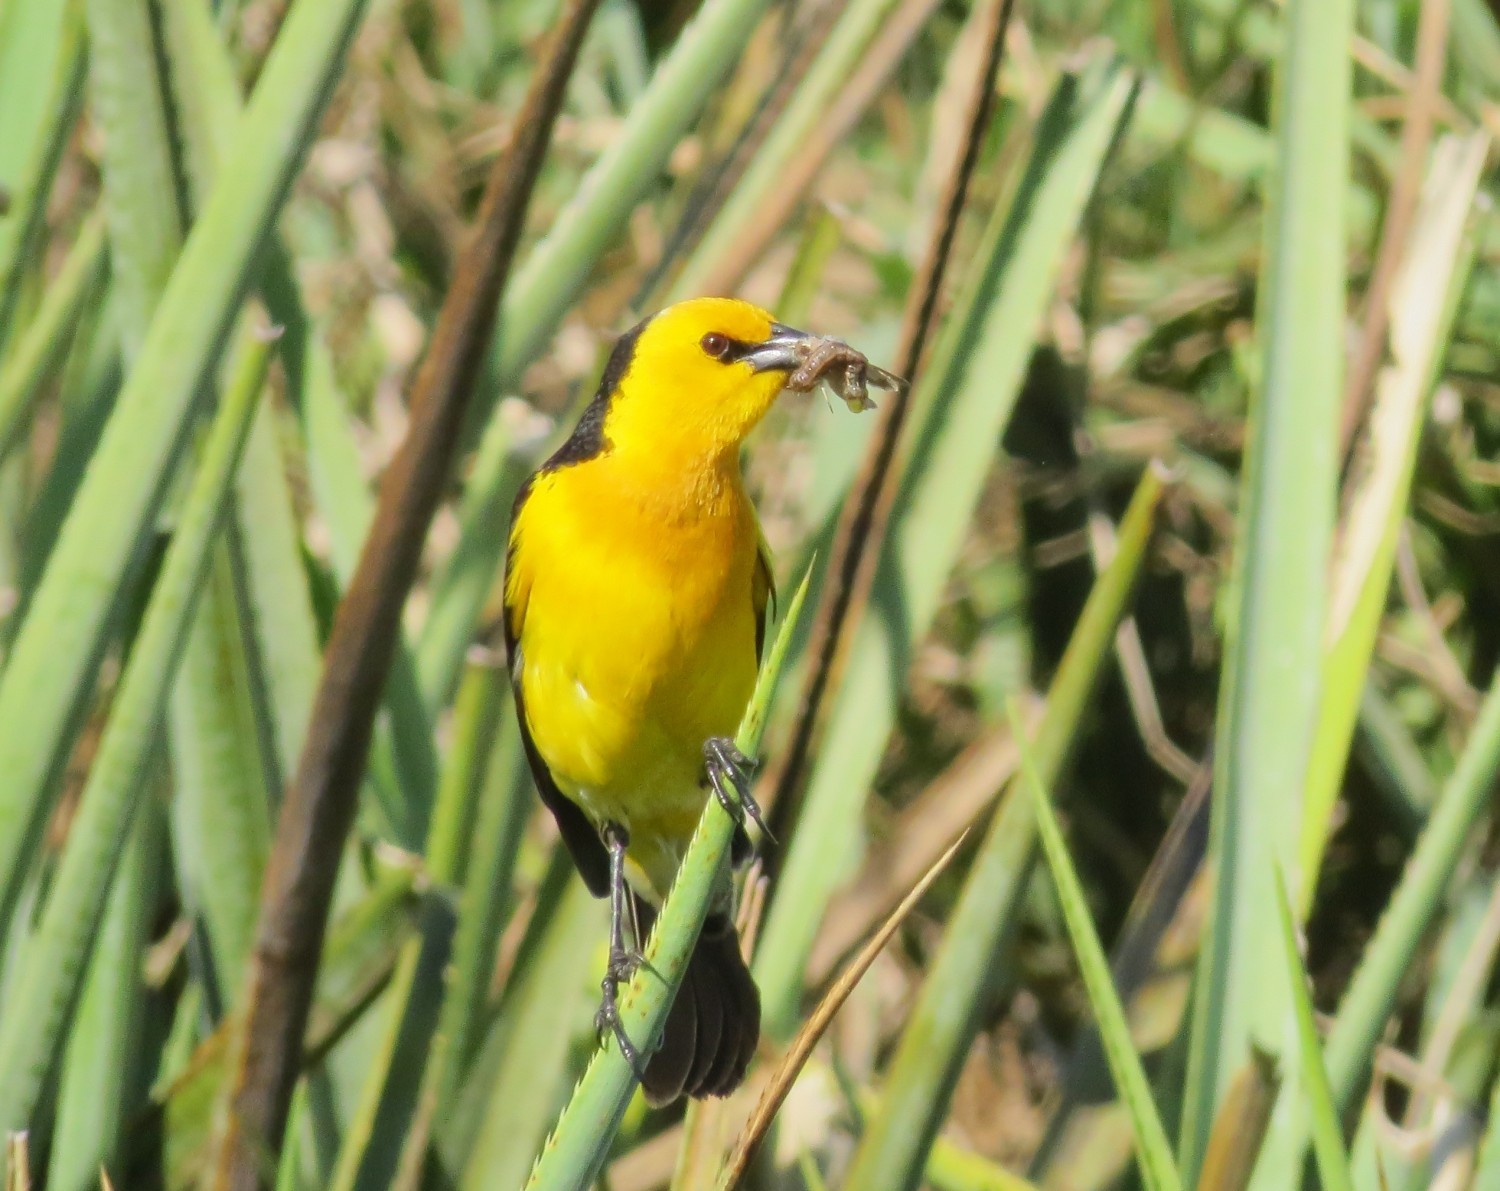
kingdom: Animalia
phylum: Chordata
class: Aves
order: Passeriformes
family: Icteridae
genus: Xanthopsar
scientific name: Xanthopsar flavus
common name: Saffron-cowled blackbird
